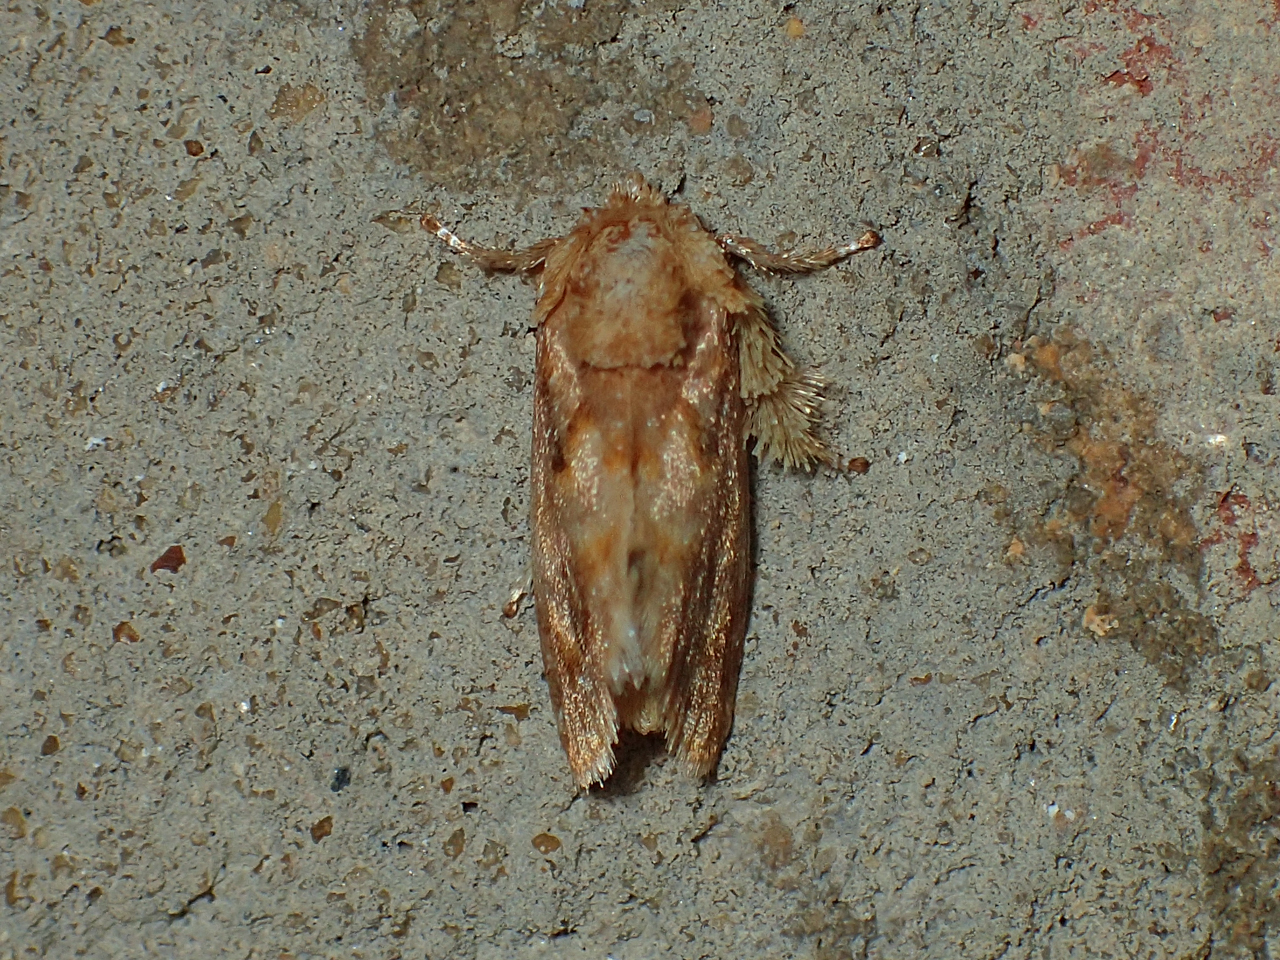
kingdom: Animalia
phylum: Arthropoda
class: Insecta
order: Lepidoptera
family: Limacodidae
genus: Isochaetes
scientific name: Isochaetes beutenmuelleri
